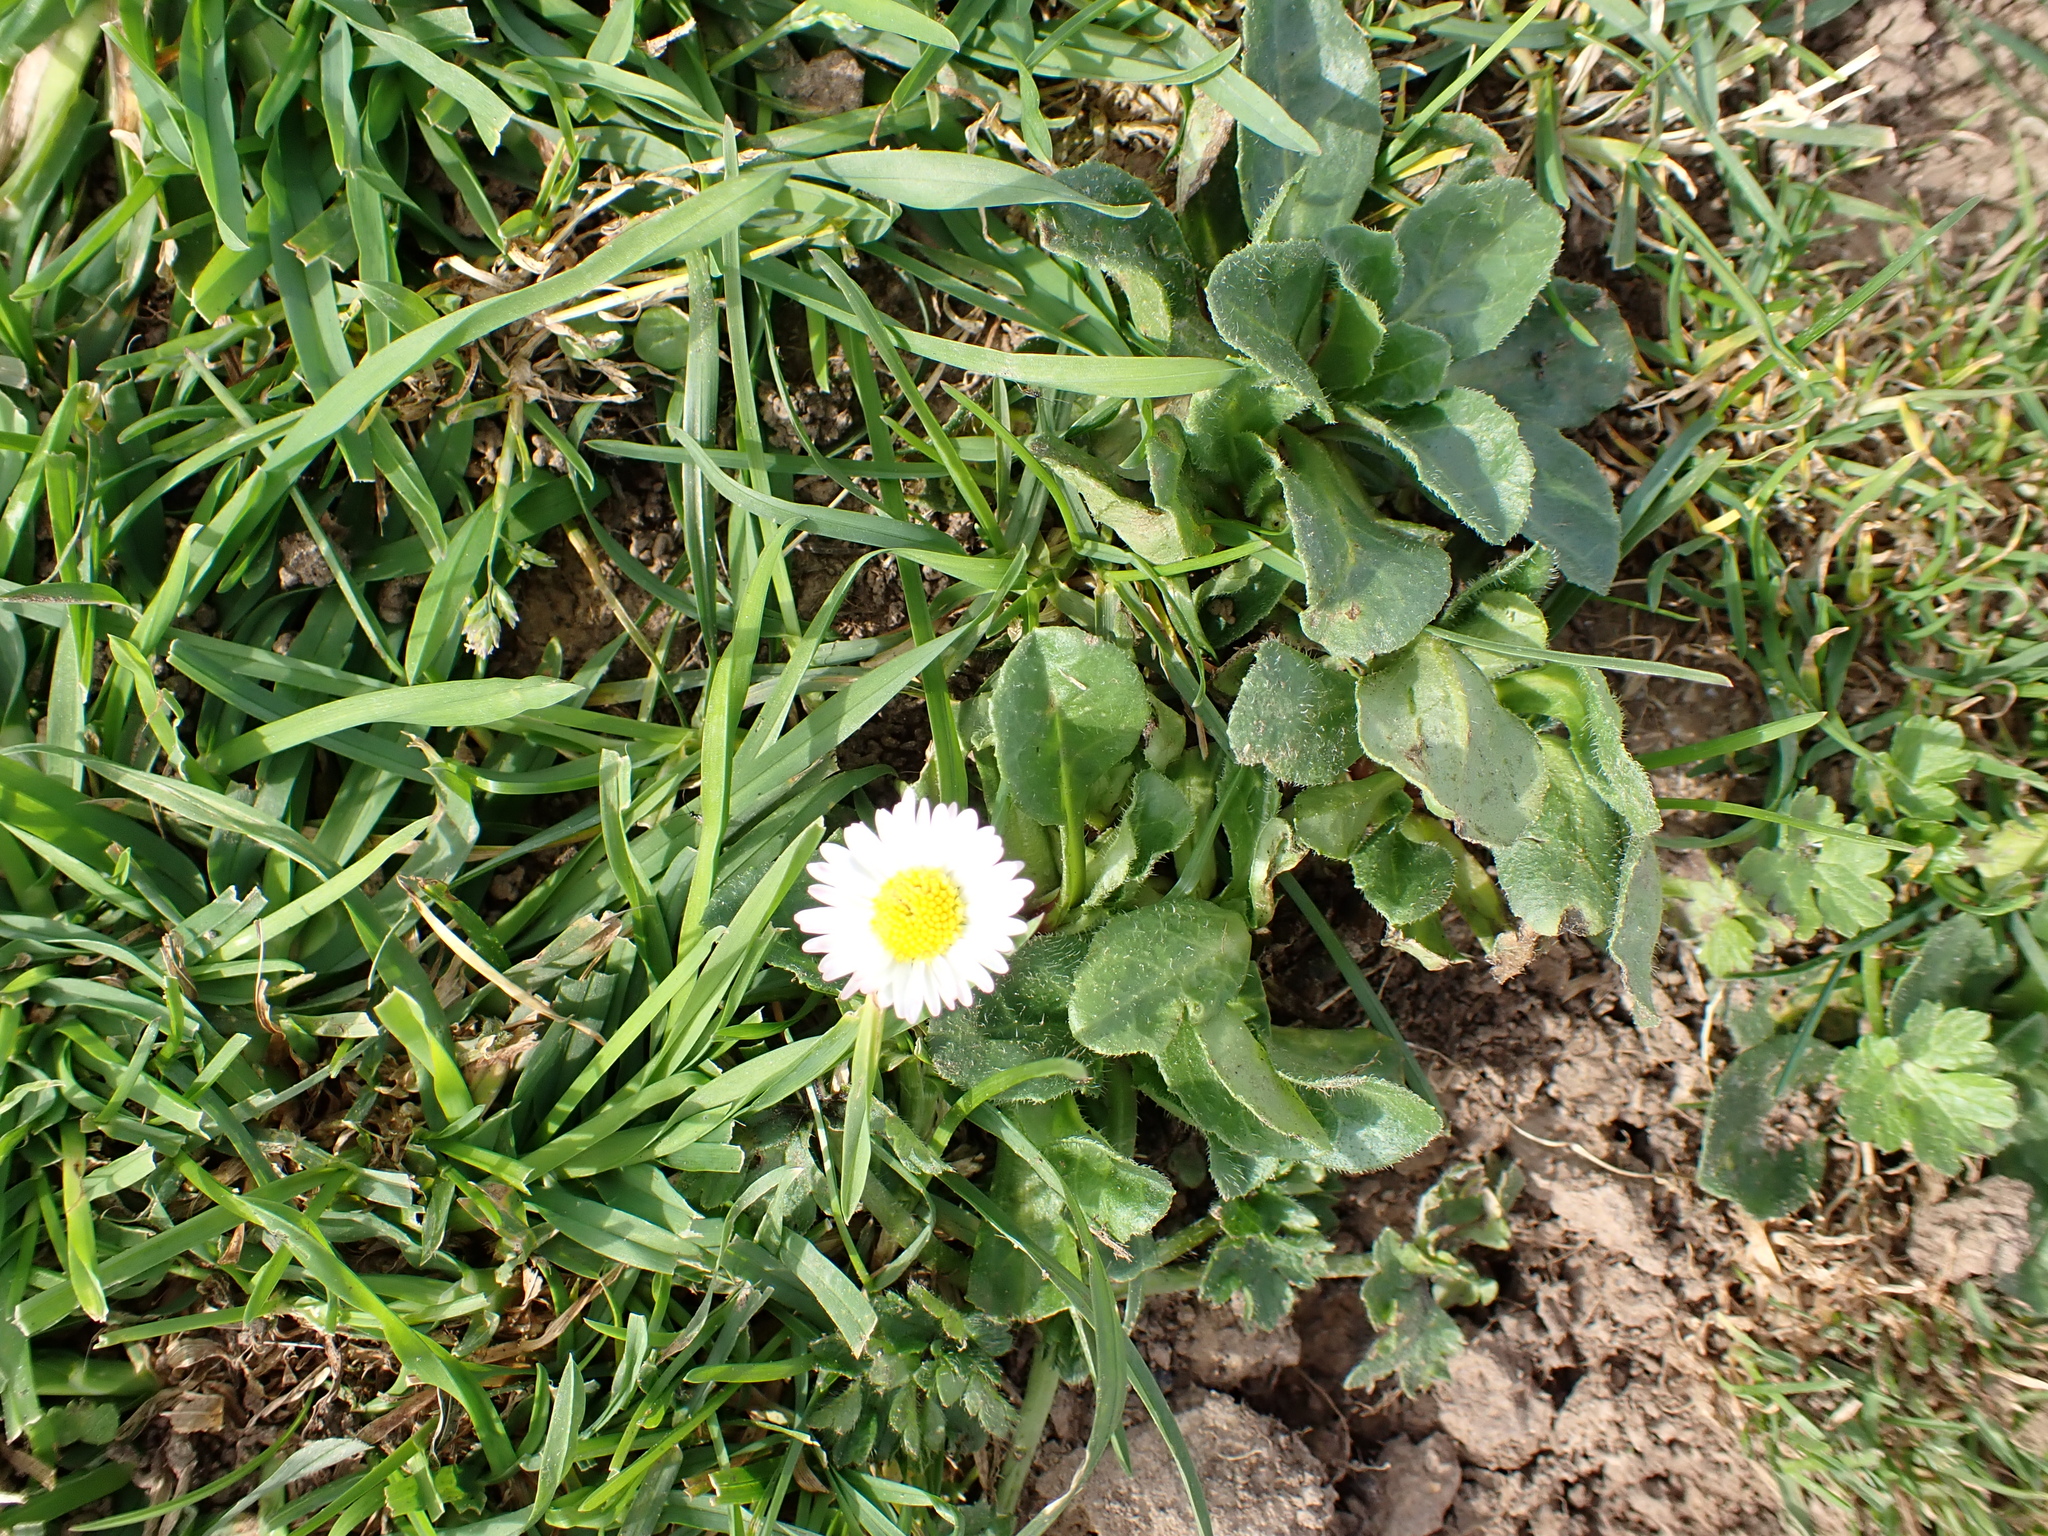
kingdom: Plantae
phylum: Tracheophyta
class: Magnoliopsida
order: Asterales
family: Asteraceae
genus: Bellis
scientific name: Bellis perennis
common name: Lawndaisy
